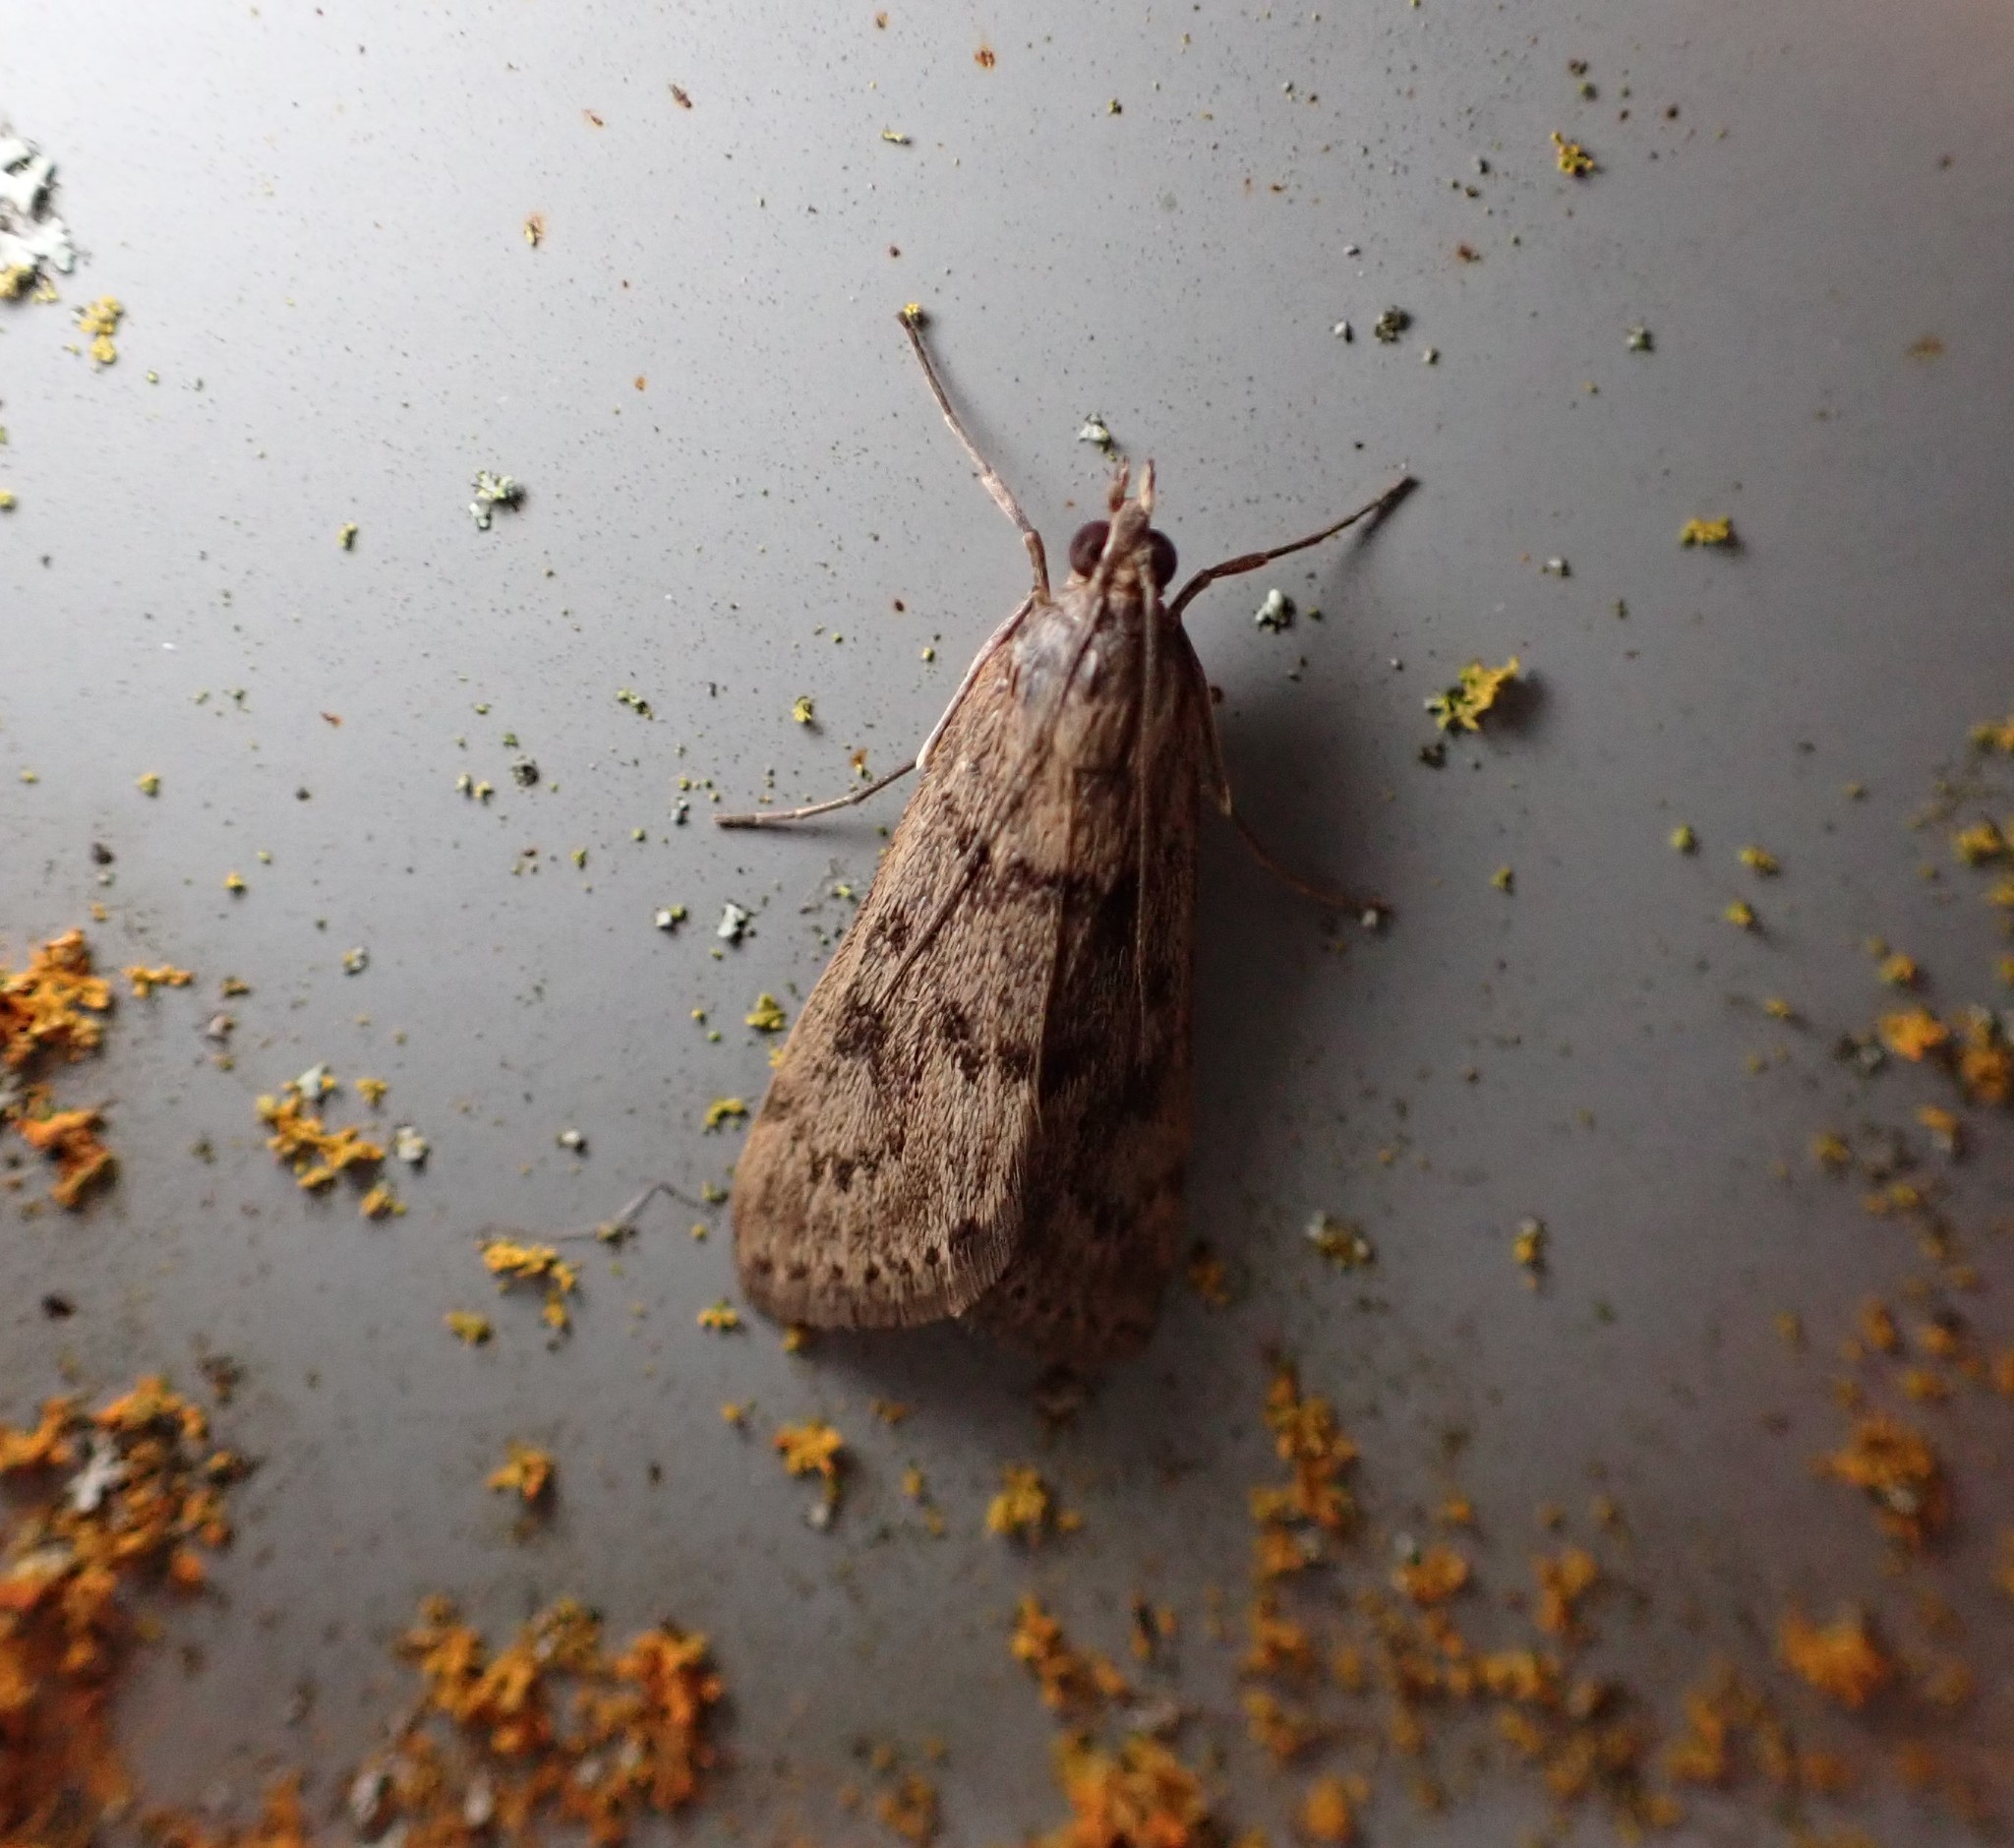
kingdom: Animalia
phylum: Arthropoda
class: Insecta
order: Lepidoptera
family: Crambidae
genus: Achyra
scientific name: Achyra affinitalis
